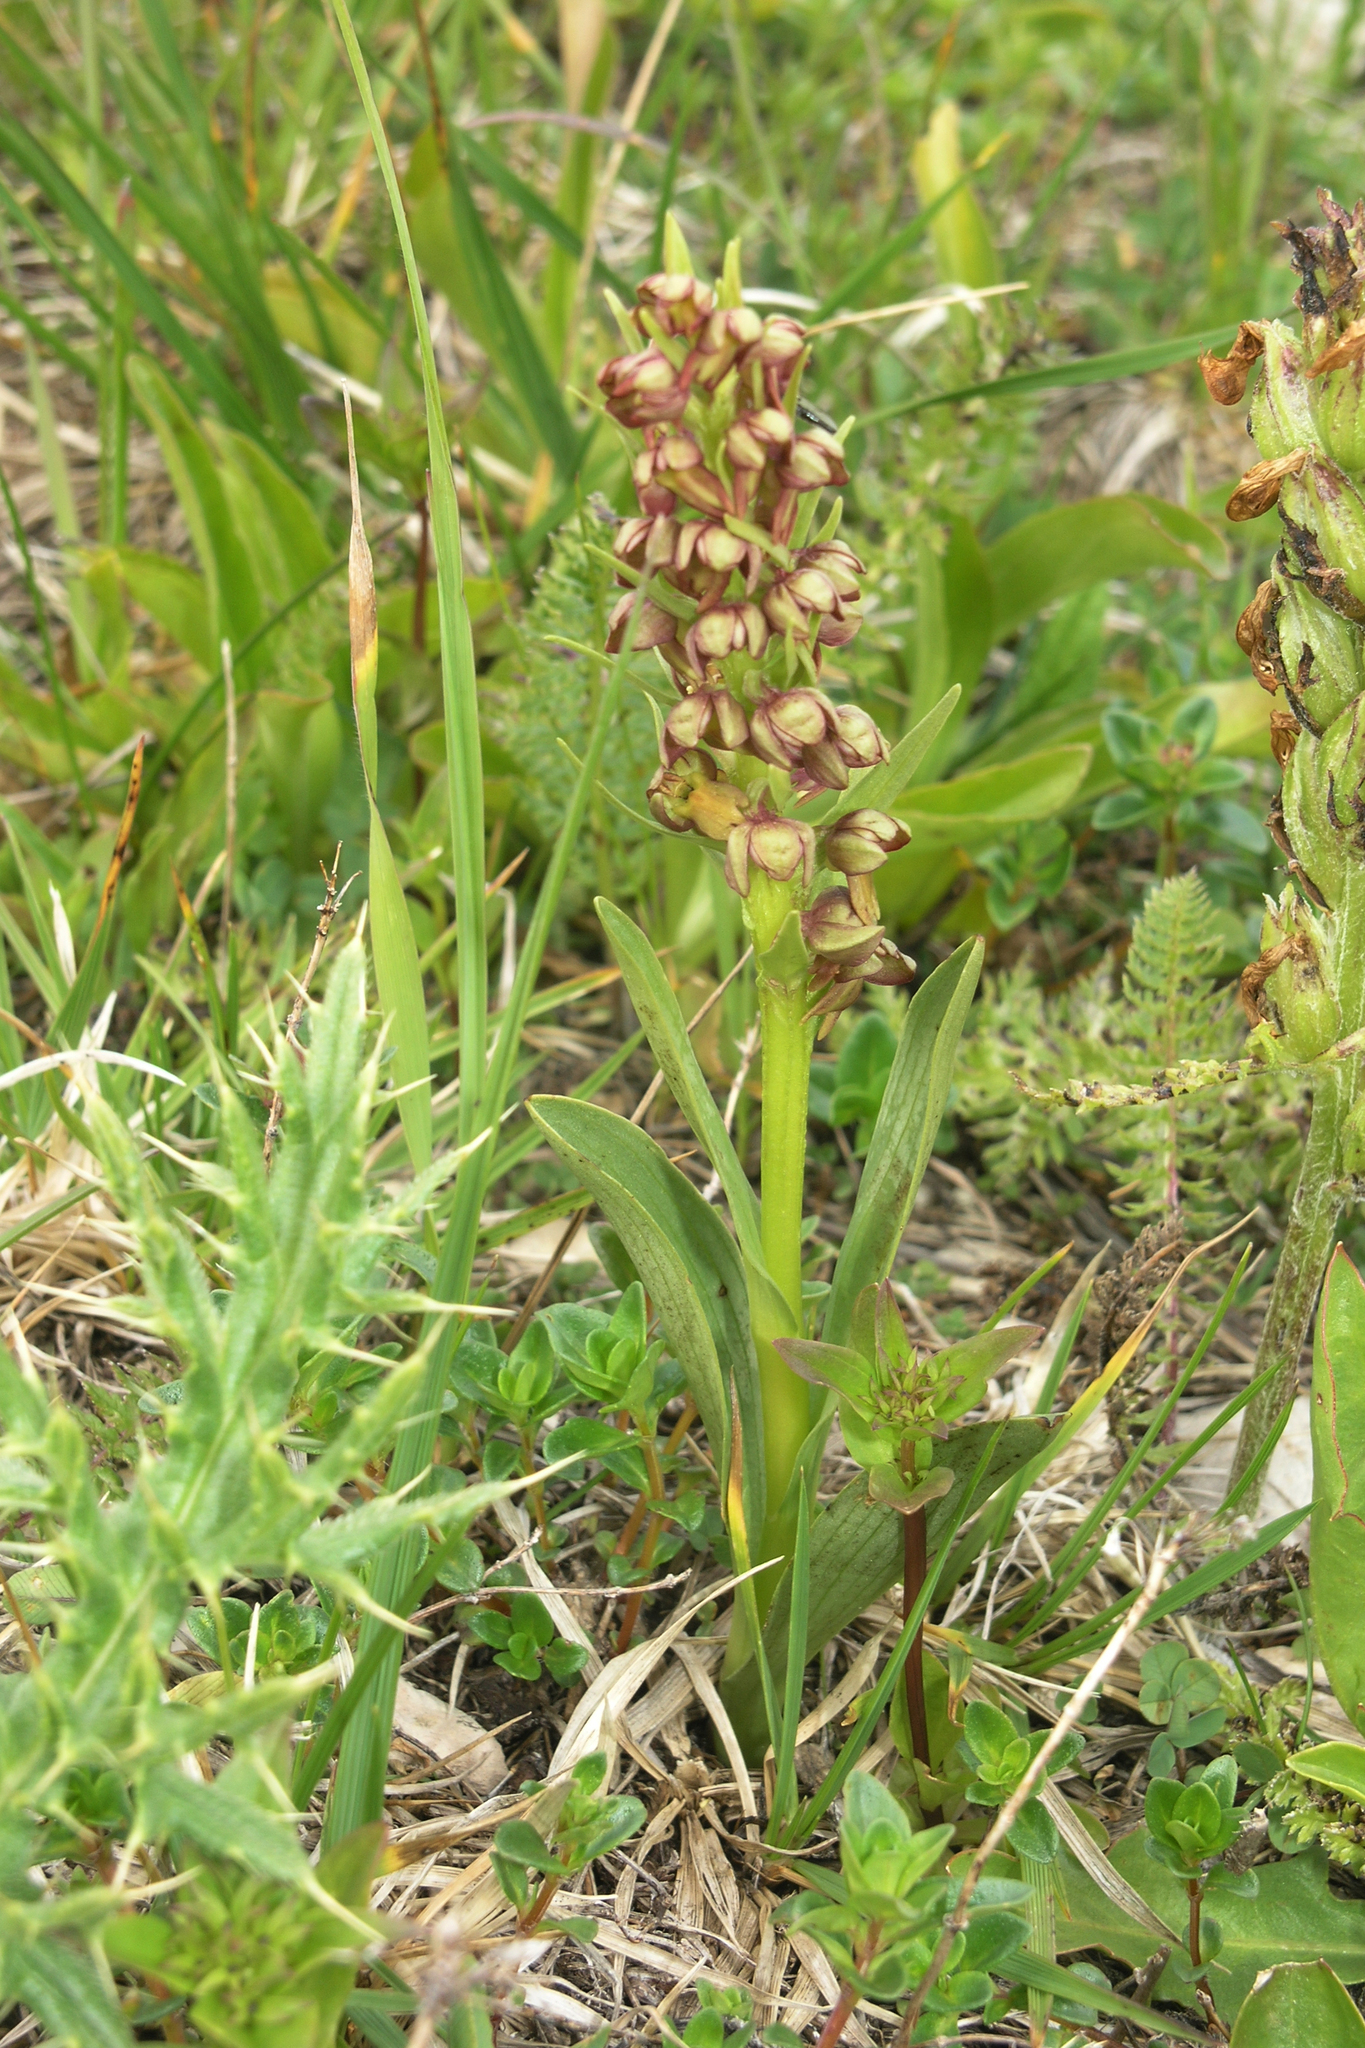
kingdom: Plantae
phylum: Tracheophyta
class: Liliopsida
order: Asparagales
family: Orchidaceae
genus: Dactylorhiza
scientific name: Dactylorhiza viridis
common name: Longbract frog orchid
